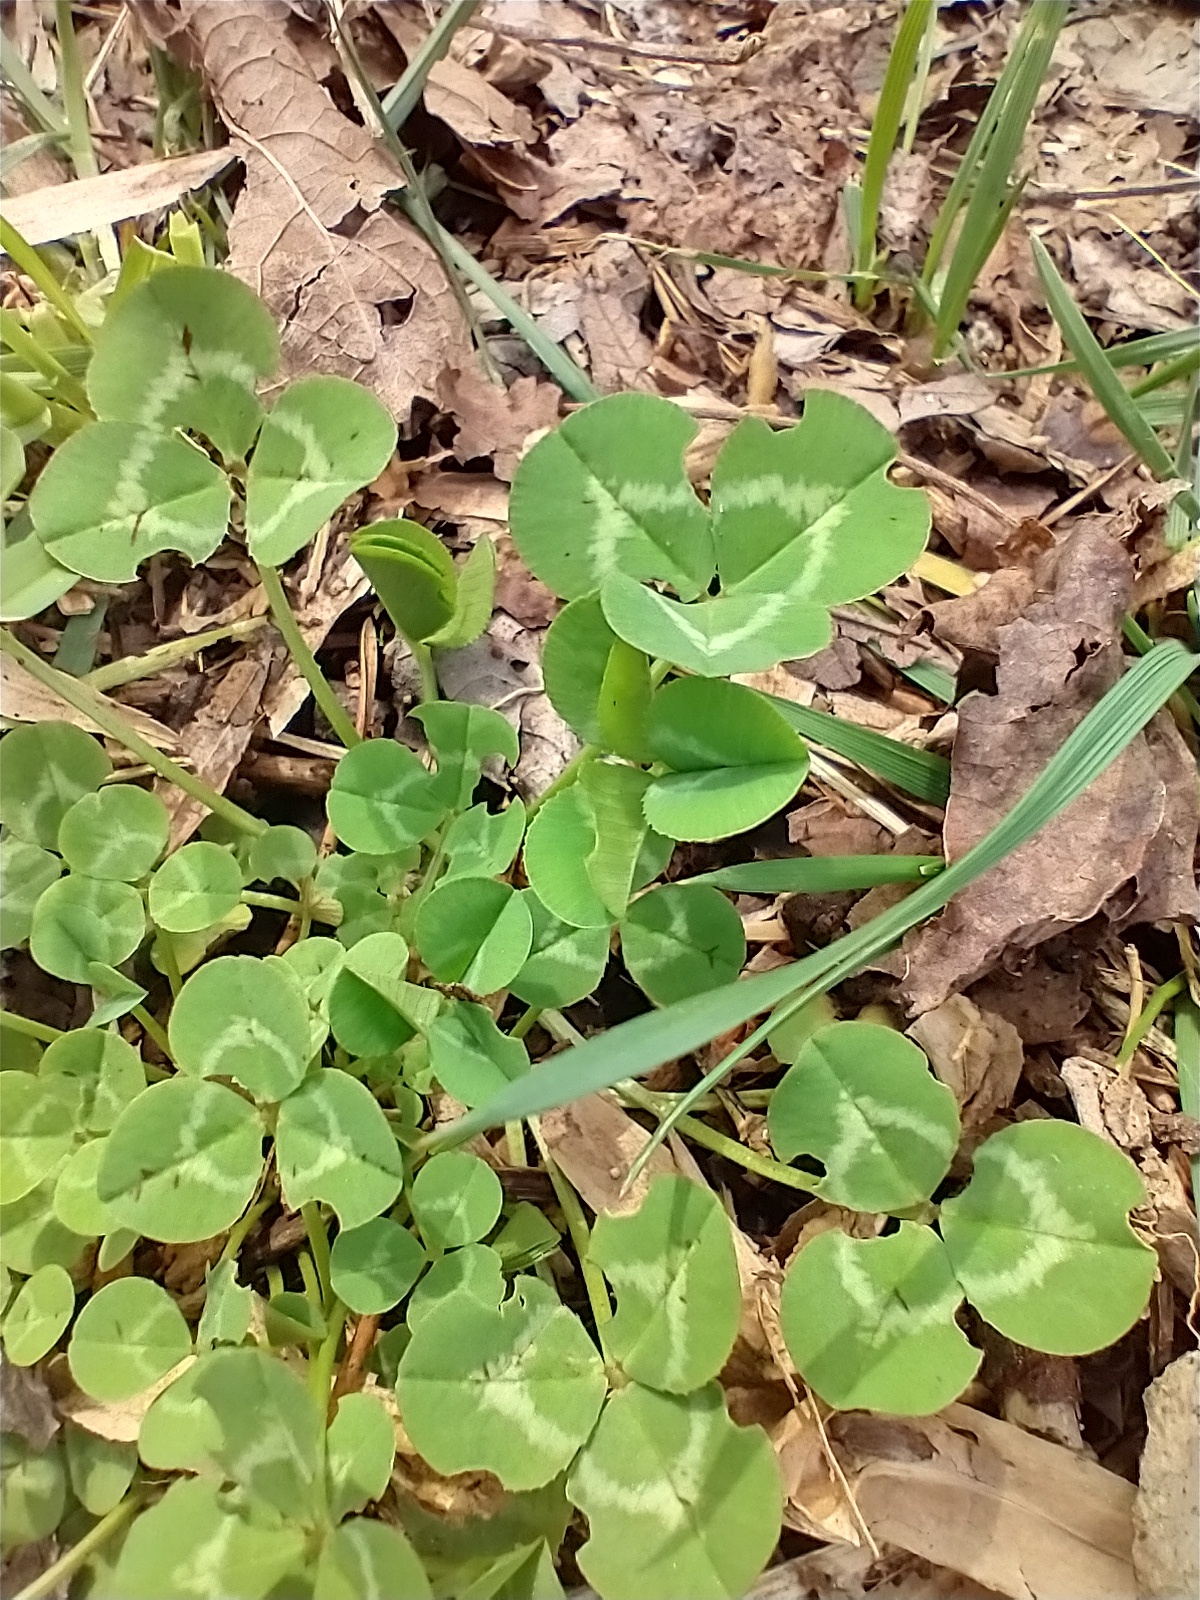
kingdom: Plantae
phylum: Tracheophyta
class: Magnoliopsida
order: Fabales
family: Fabaceae
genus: Trifolium
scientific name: Trifolium repens
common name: White clover
